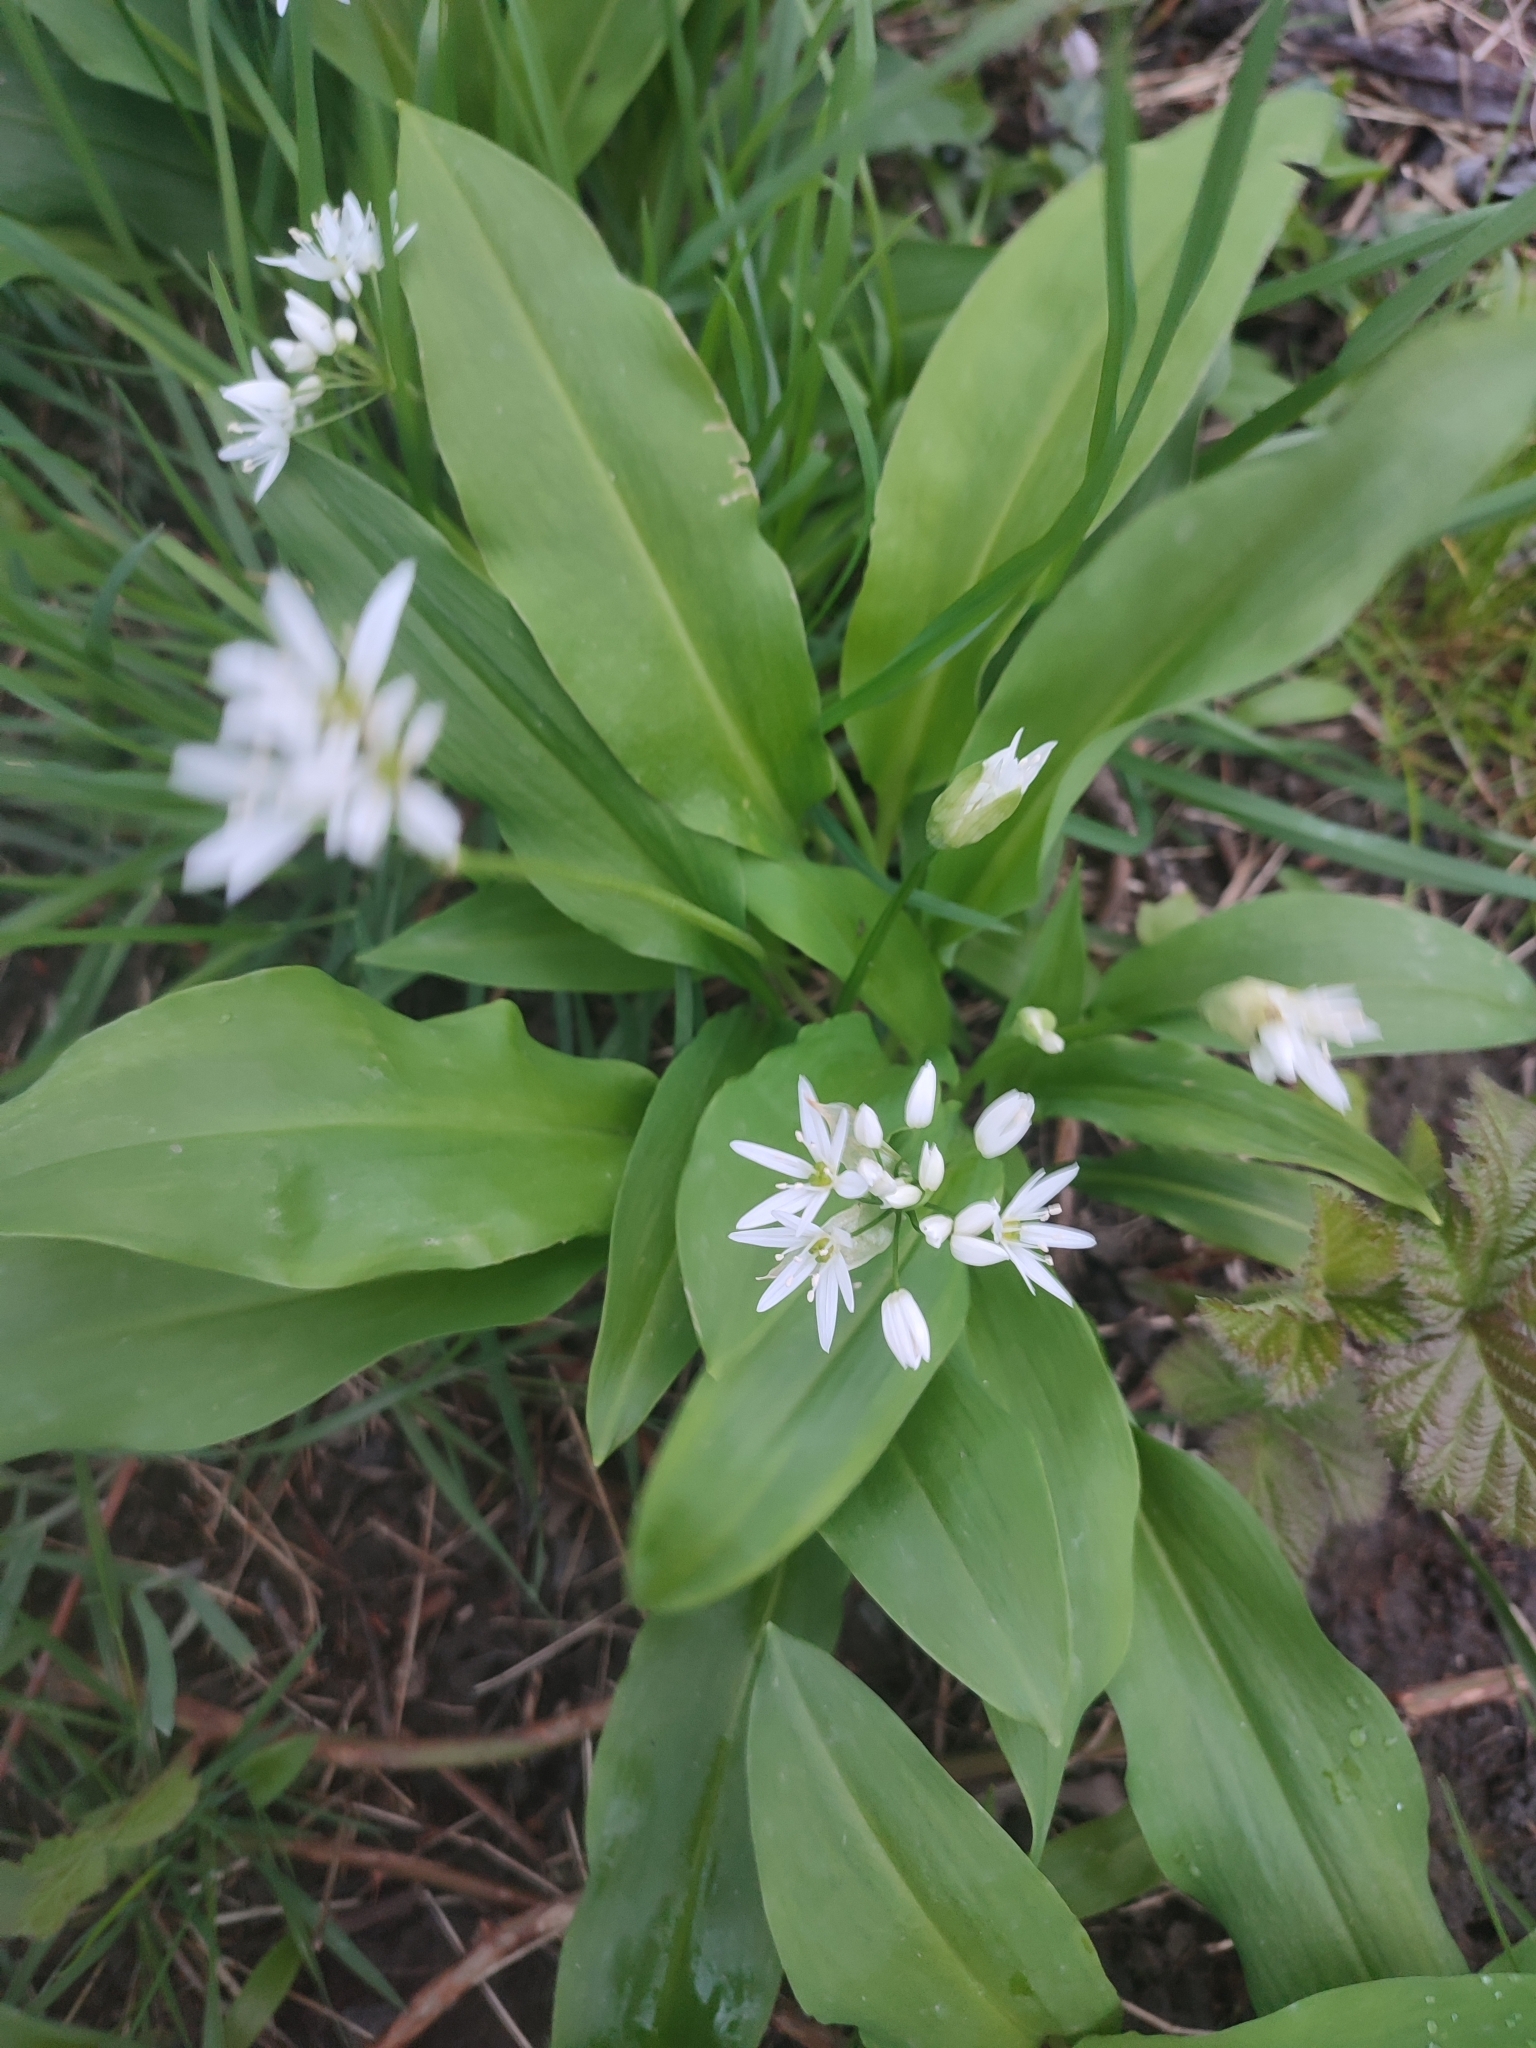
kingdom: Plantae
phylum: Tracheophyta
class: Liliopsida
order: Asparagales
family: Amaryllidaceae
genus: Allium
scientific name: Allium ursinum
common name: Ramsons
